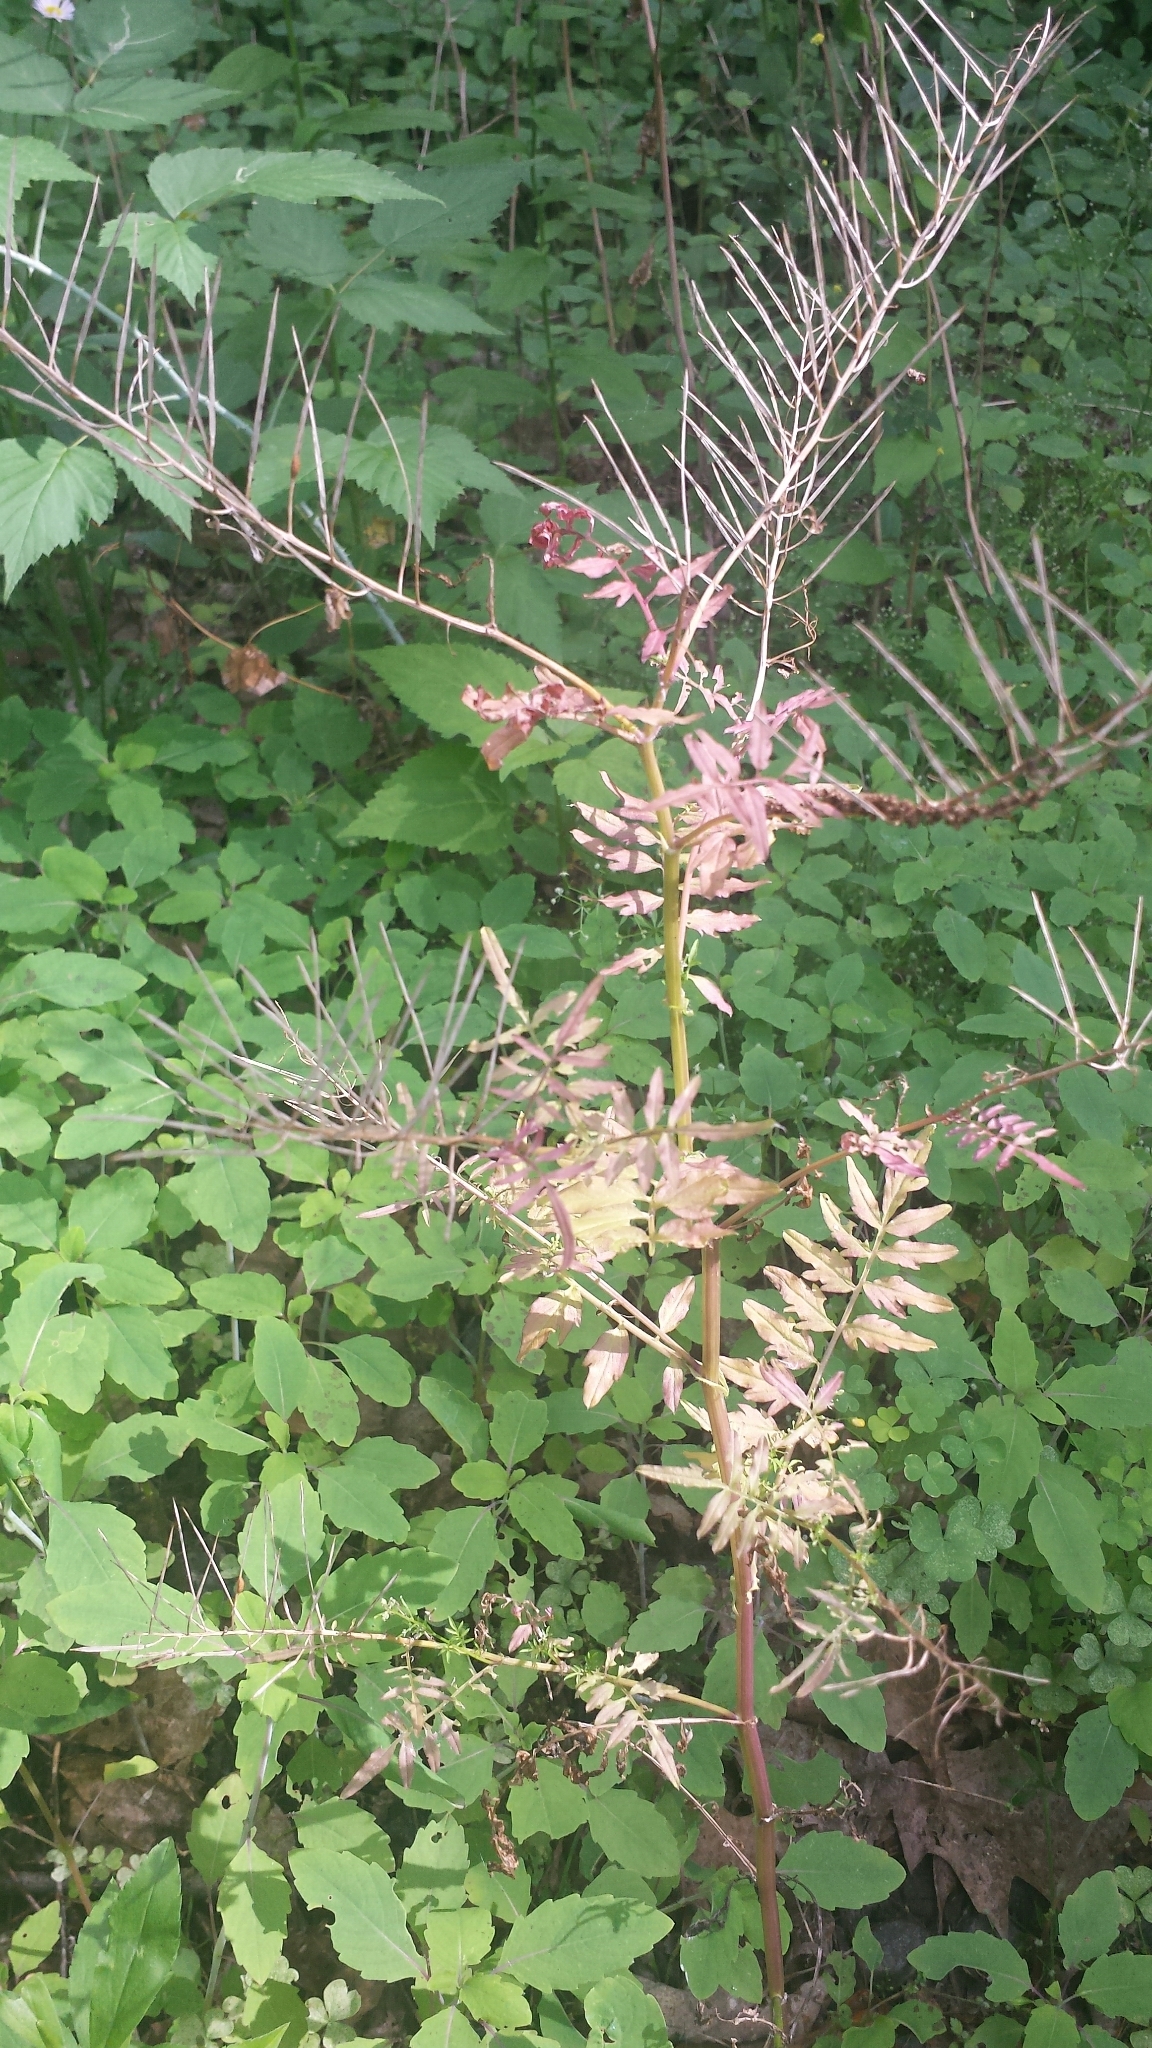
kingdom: Plantae
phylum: Tracheophyta
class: Magnoliopsida
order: Brassicales
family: Brassicaceae
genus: Cardamine
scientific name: Cardamine impatiens
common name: Narrow-leaved bitter-cress
